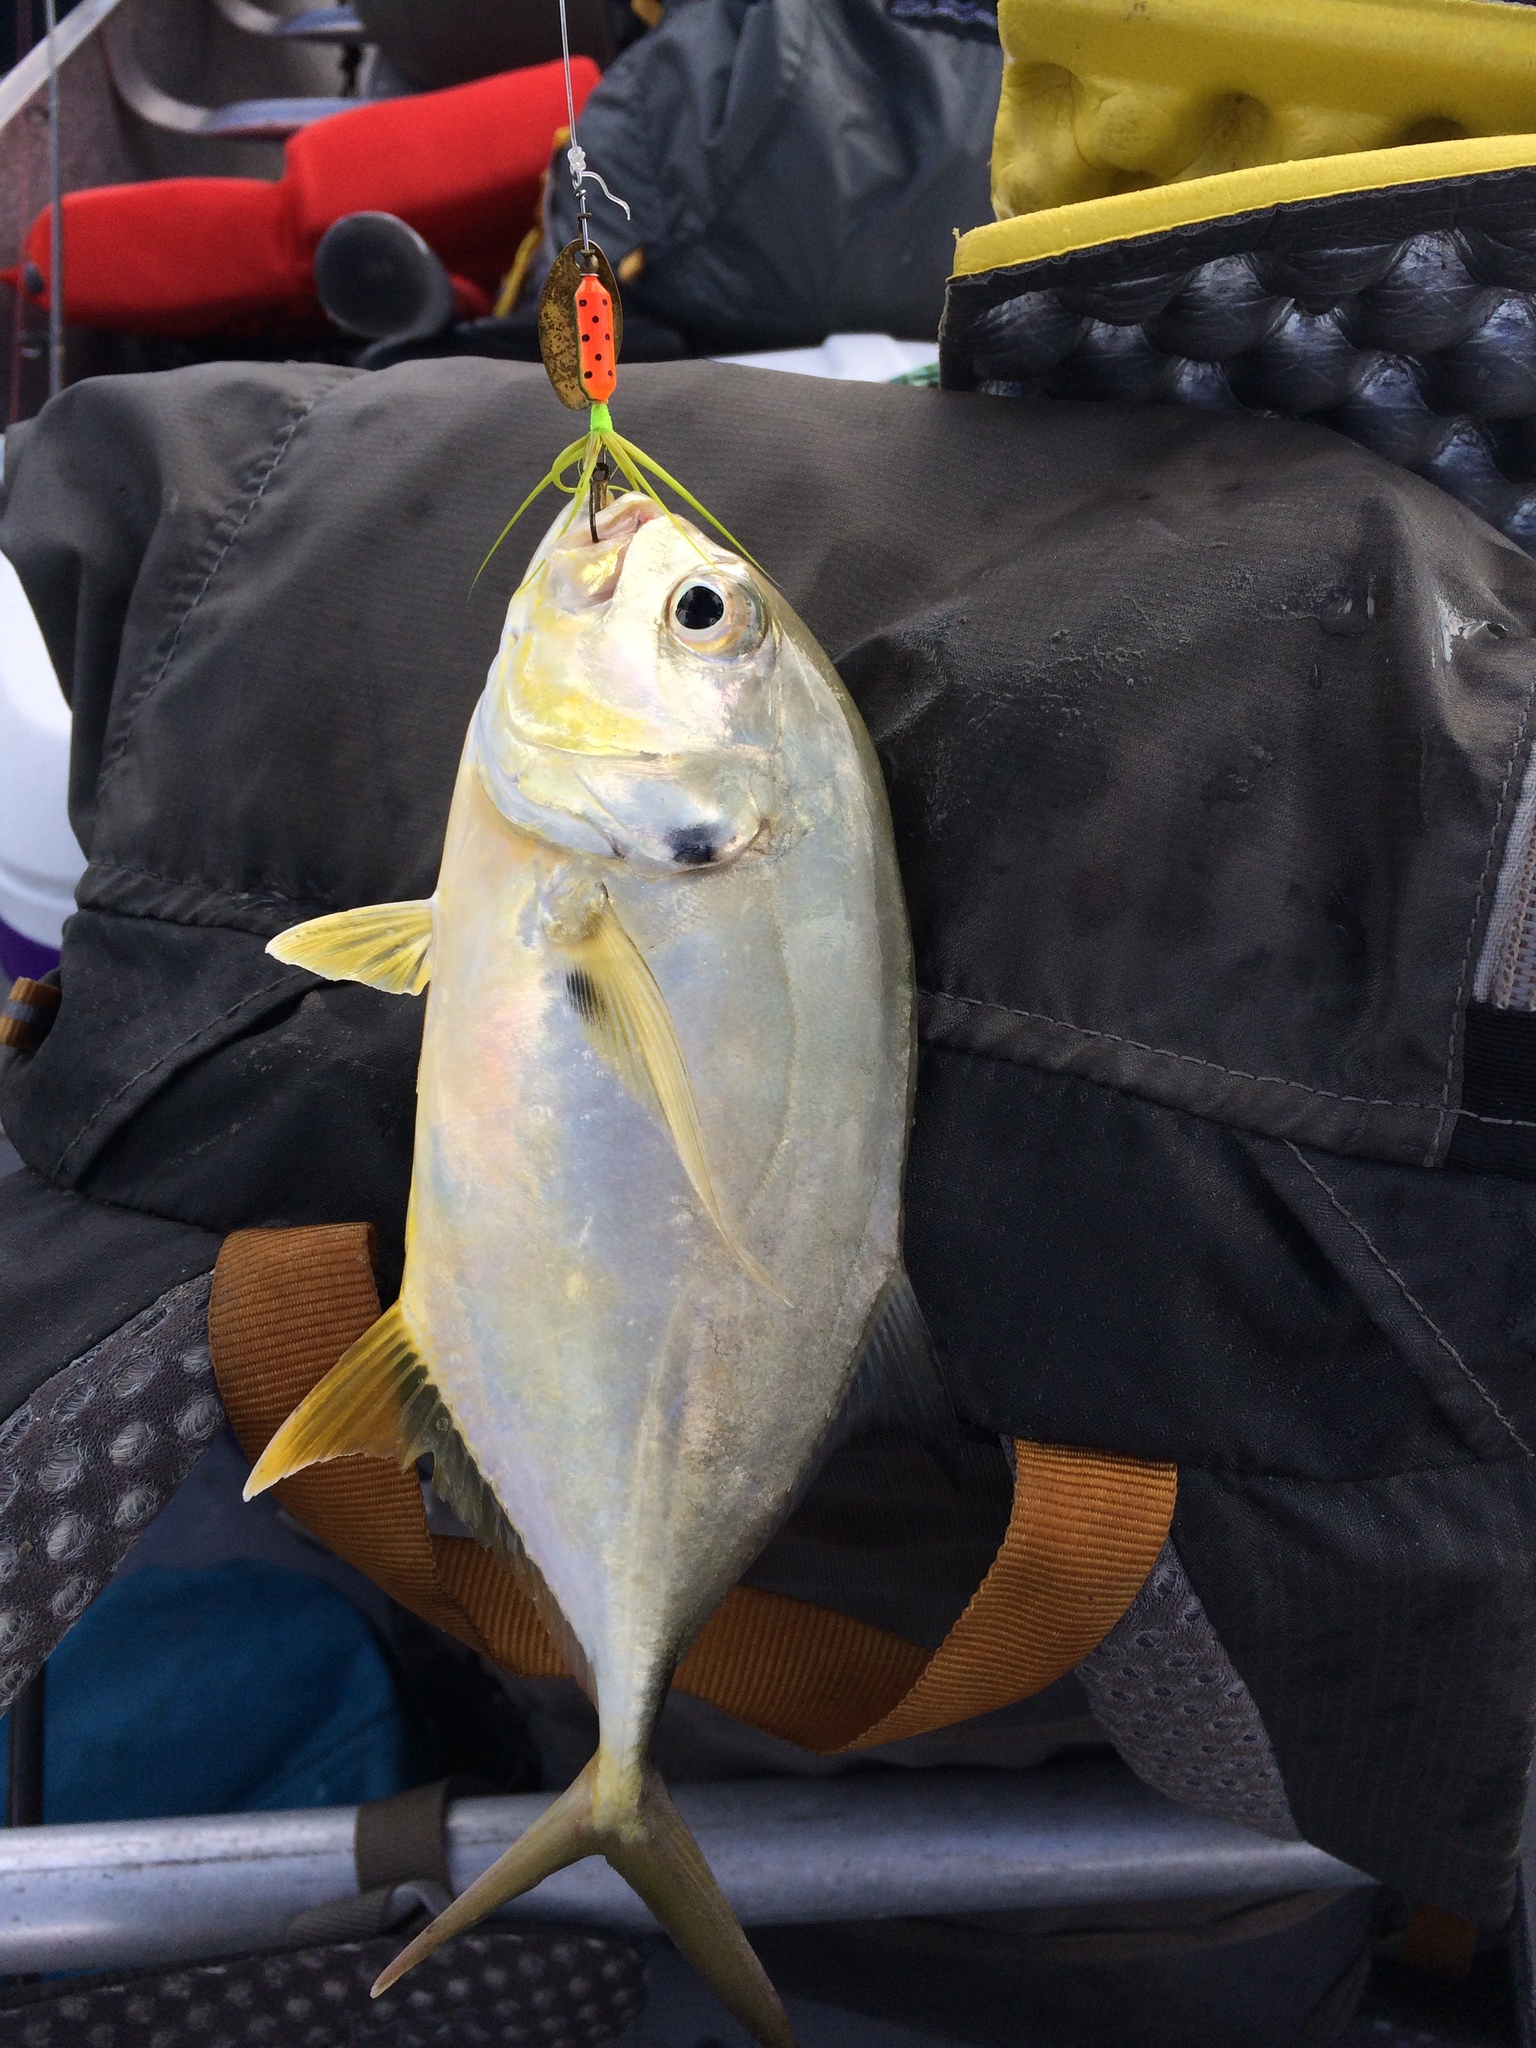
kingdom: Animalia
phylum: Chordata
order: Perciformes
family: Carangidae
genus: Caranx
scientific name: Caranx hippos
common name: Common jack
